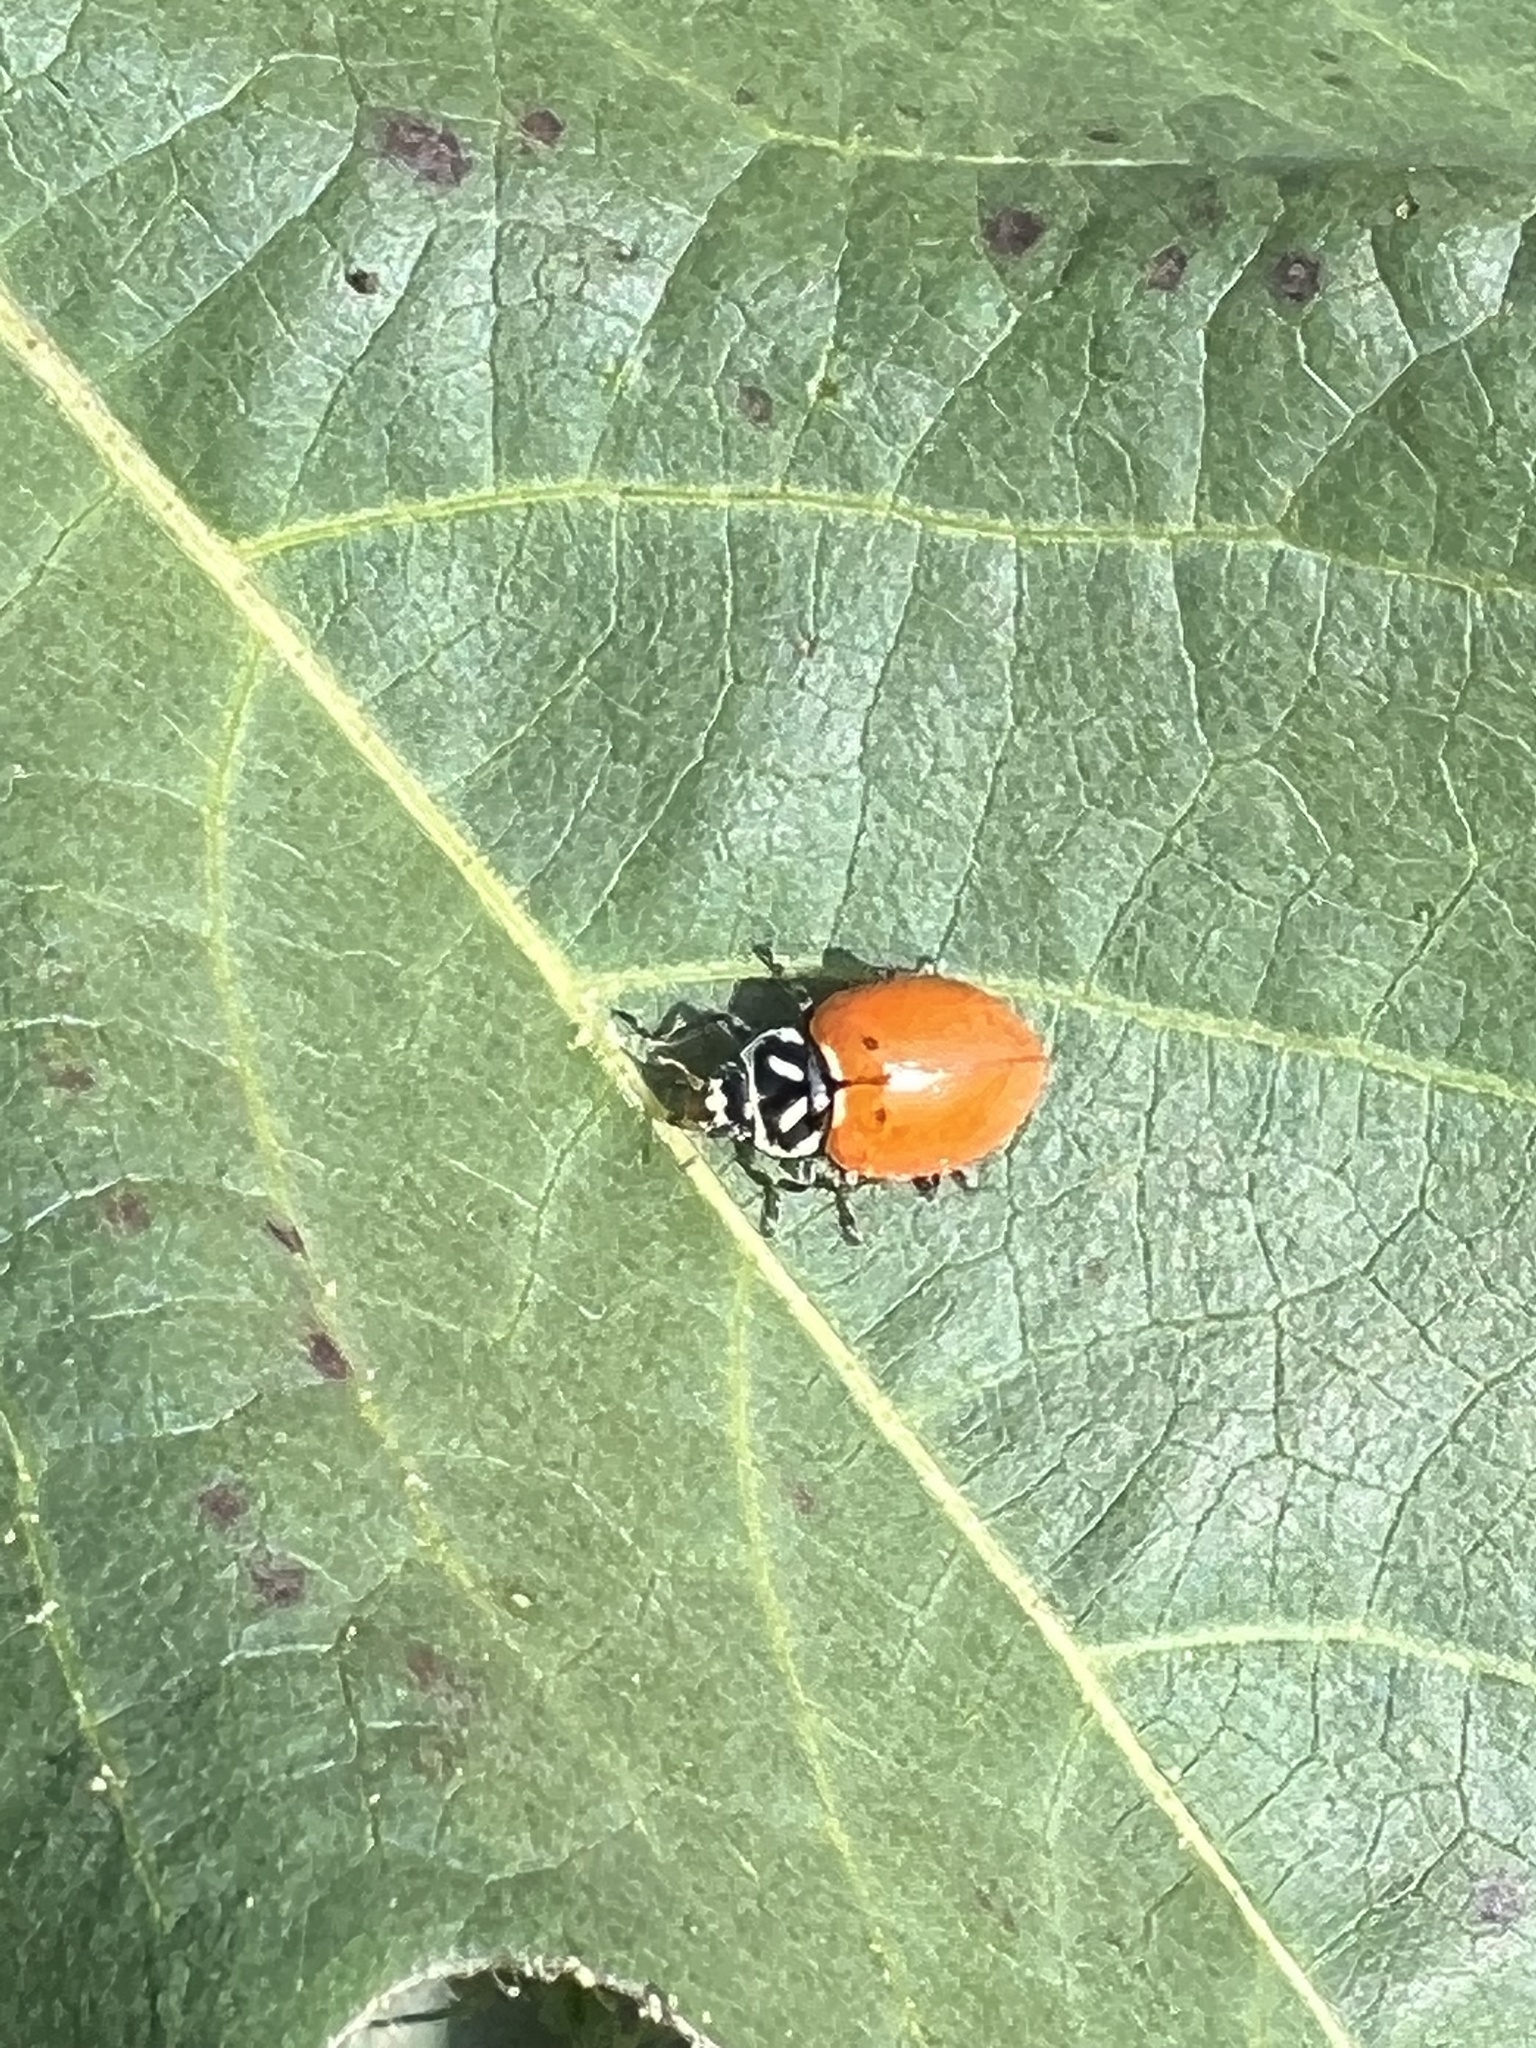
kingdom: Animalia
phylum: Arthropoda
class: Insecta
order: Coleoptera
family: Coccinellidae
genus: Hippodamia
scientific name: Hippodamia convergens
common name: Convergent lady beetle
